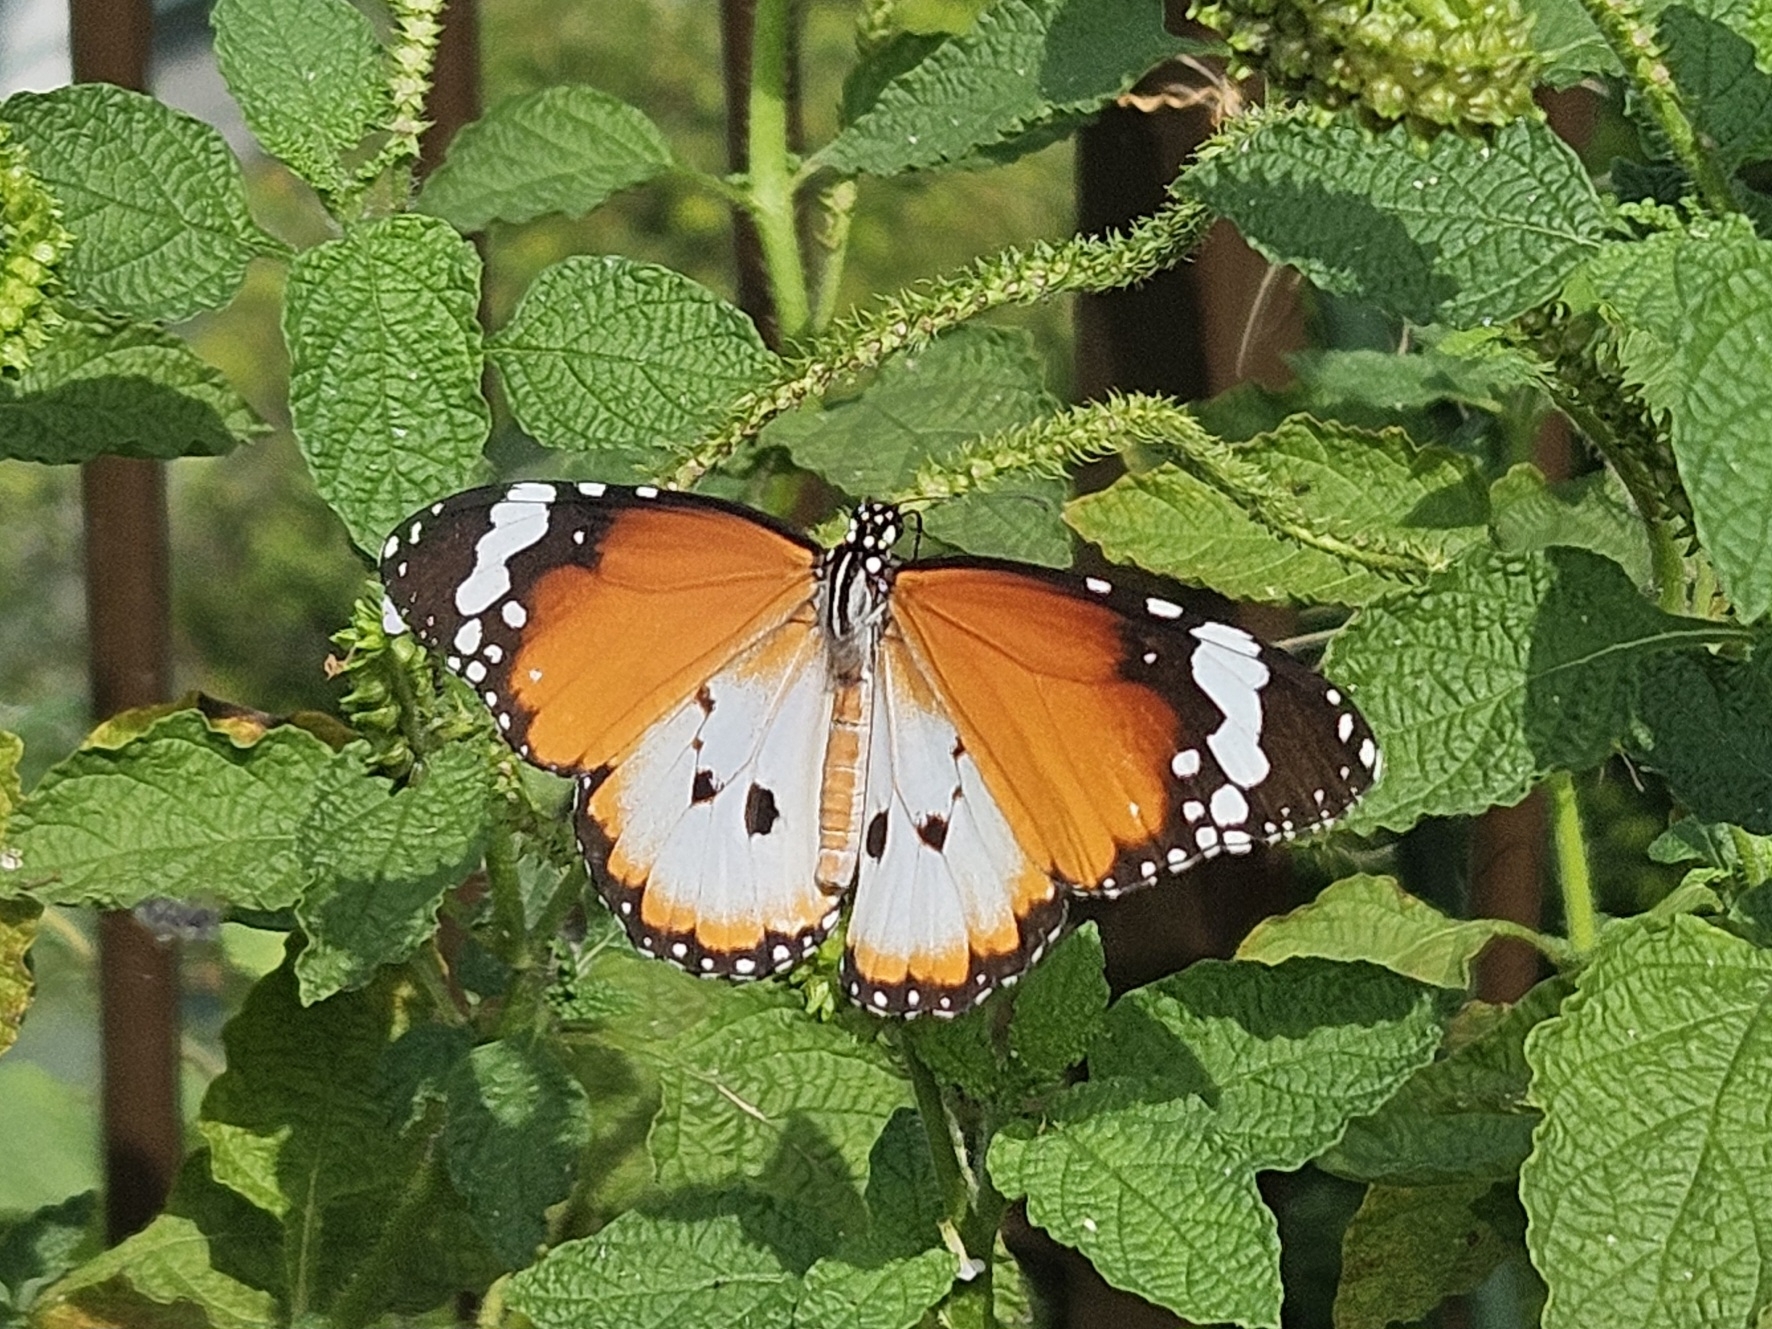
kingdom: Animalia
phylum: Arthropoda
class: Insecta
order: Lepidoptera
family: Nymphalidae
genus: Danaus
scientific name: Danaus chrysippus
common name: Plain tiger
